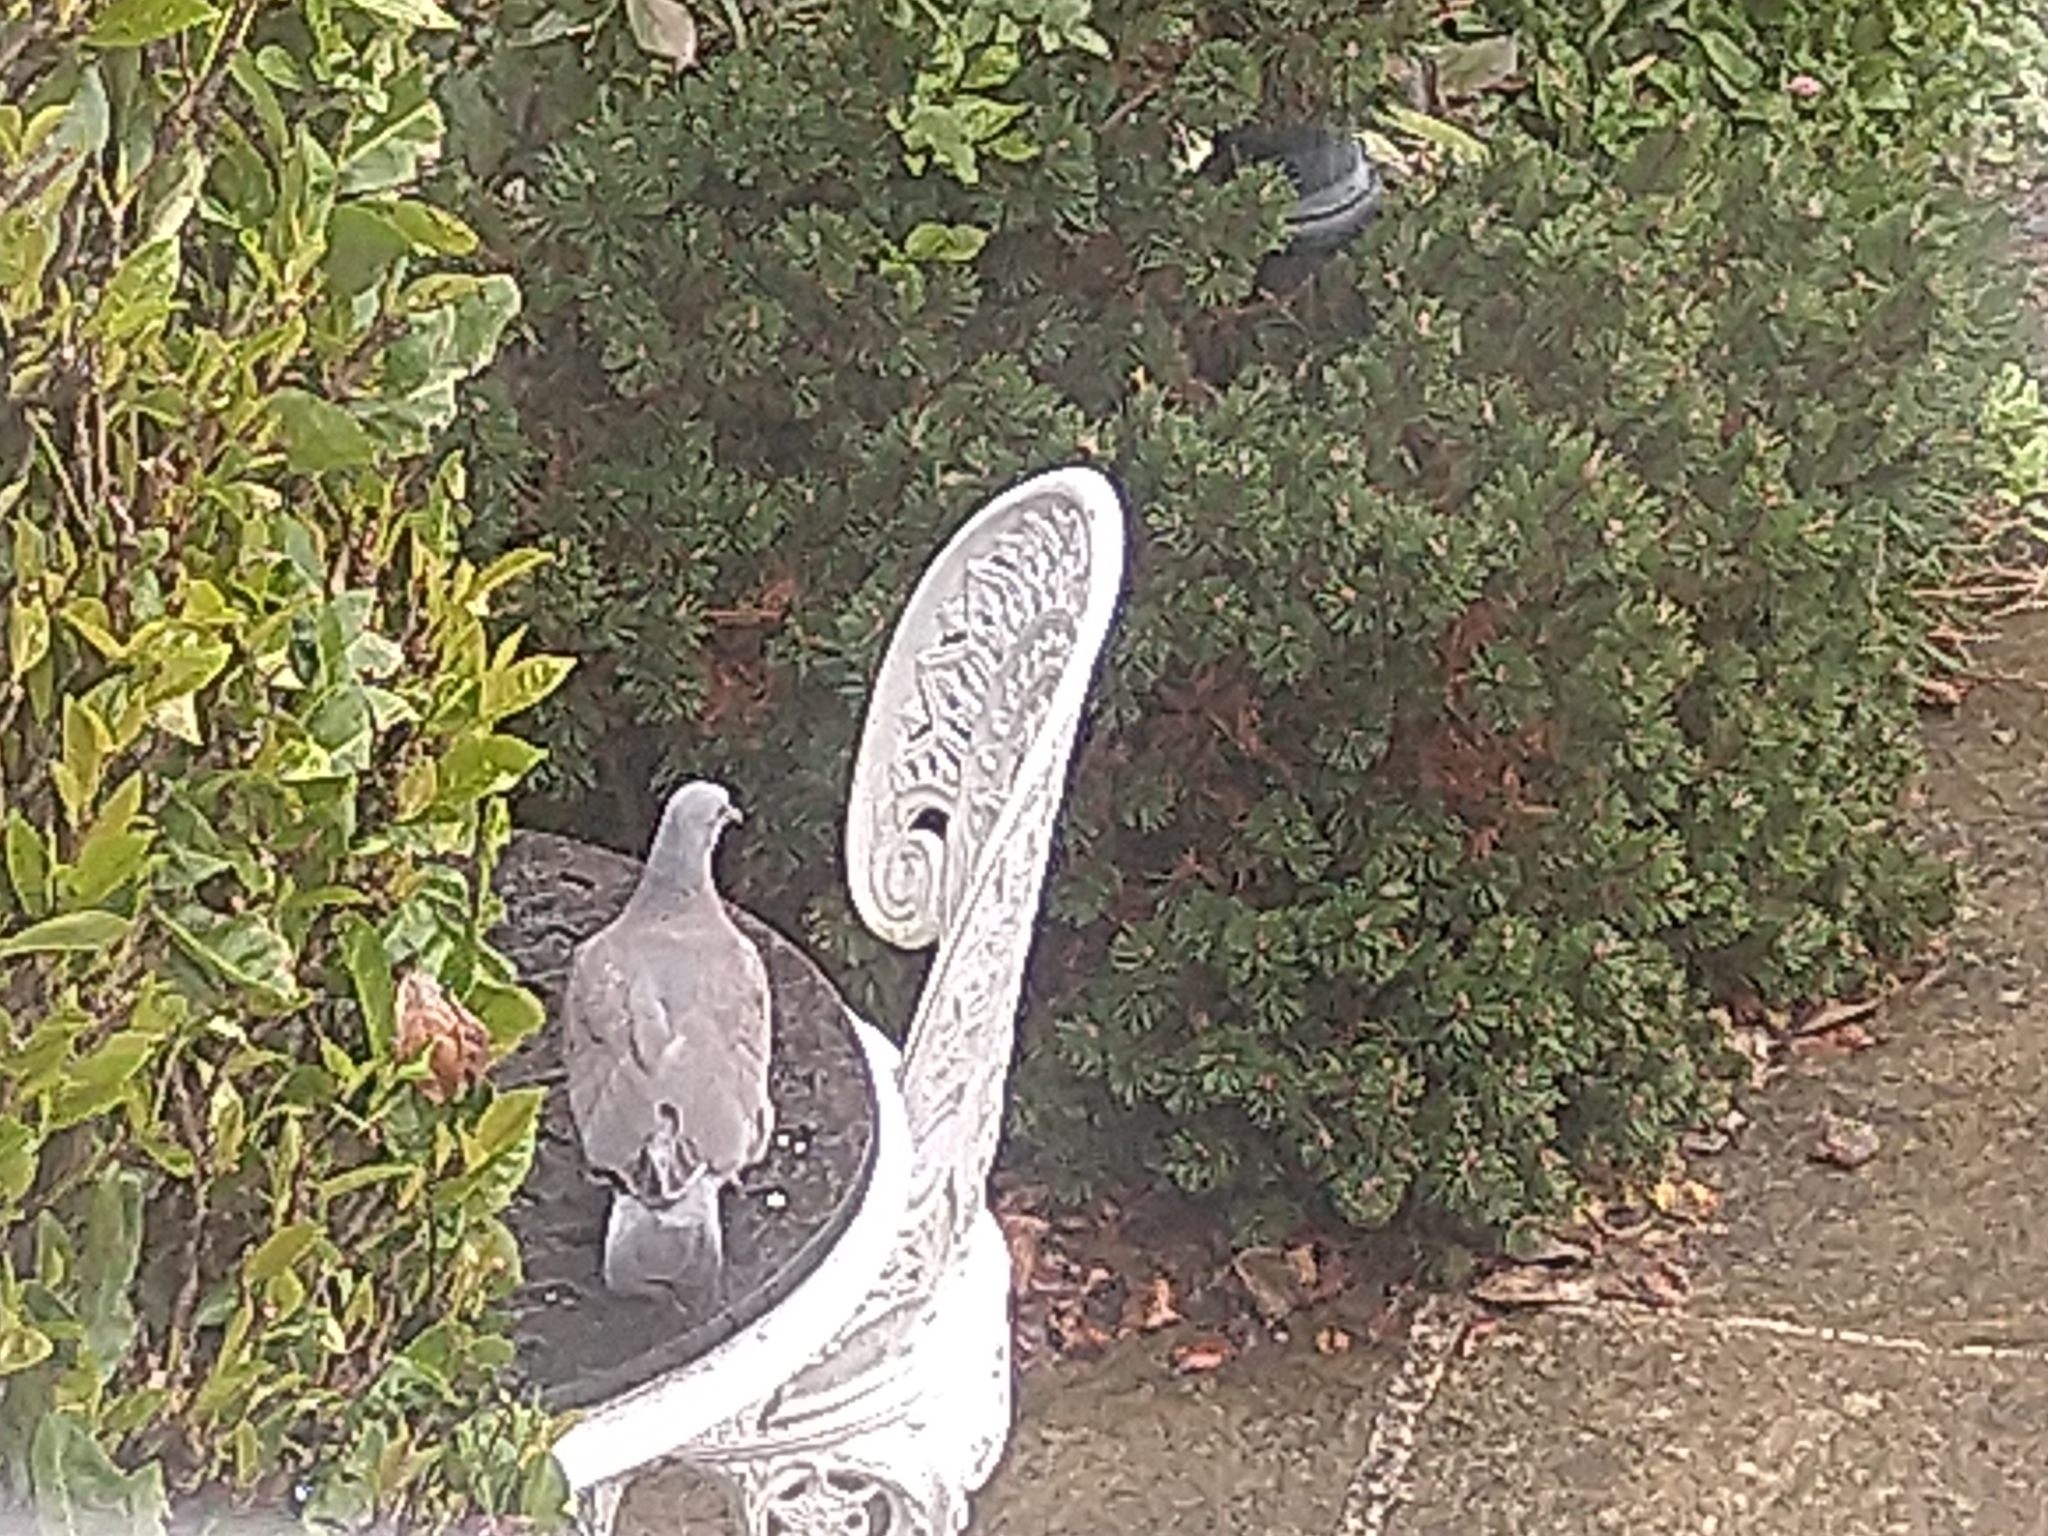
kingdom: Animalia
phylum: Chordata
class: Aves
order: Columbiformes
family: Columbidae
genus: Columba
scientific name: Columba palumbus
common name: Common wood pigeon
